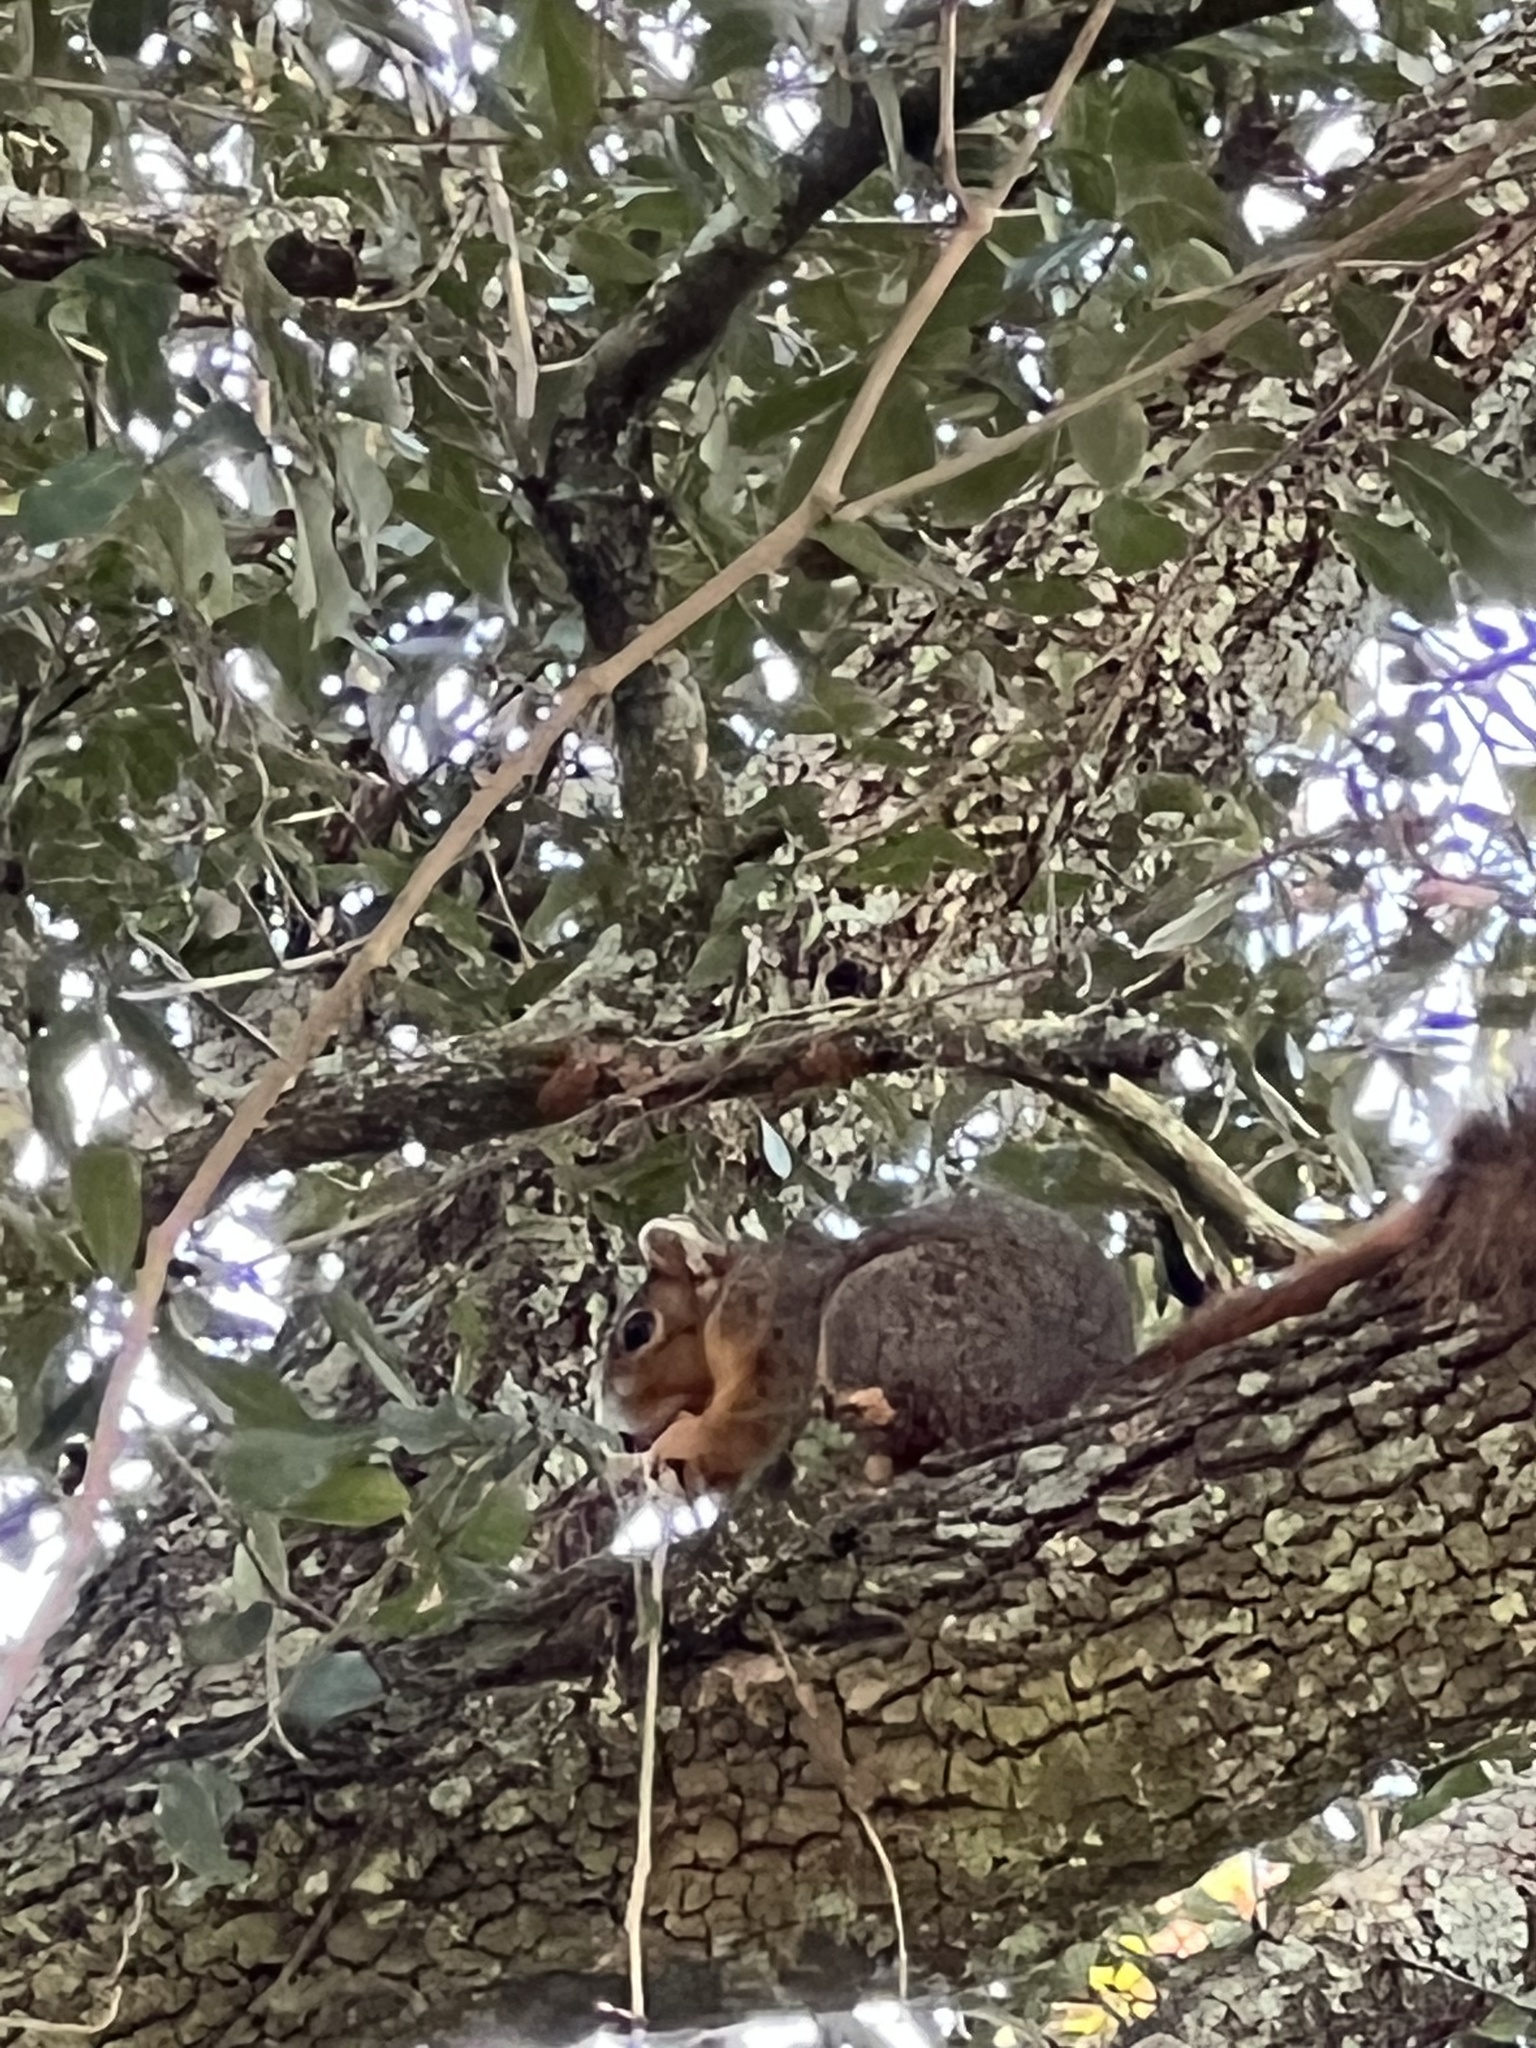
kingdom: Animalia
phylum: Chordata
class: Mammalia
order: Rodentia
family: Sciuridae
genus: Sciurus
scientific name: Sciurus niger
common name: Fox squirrel
